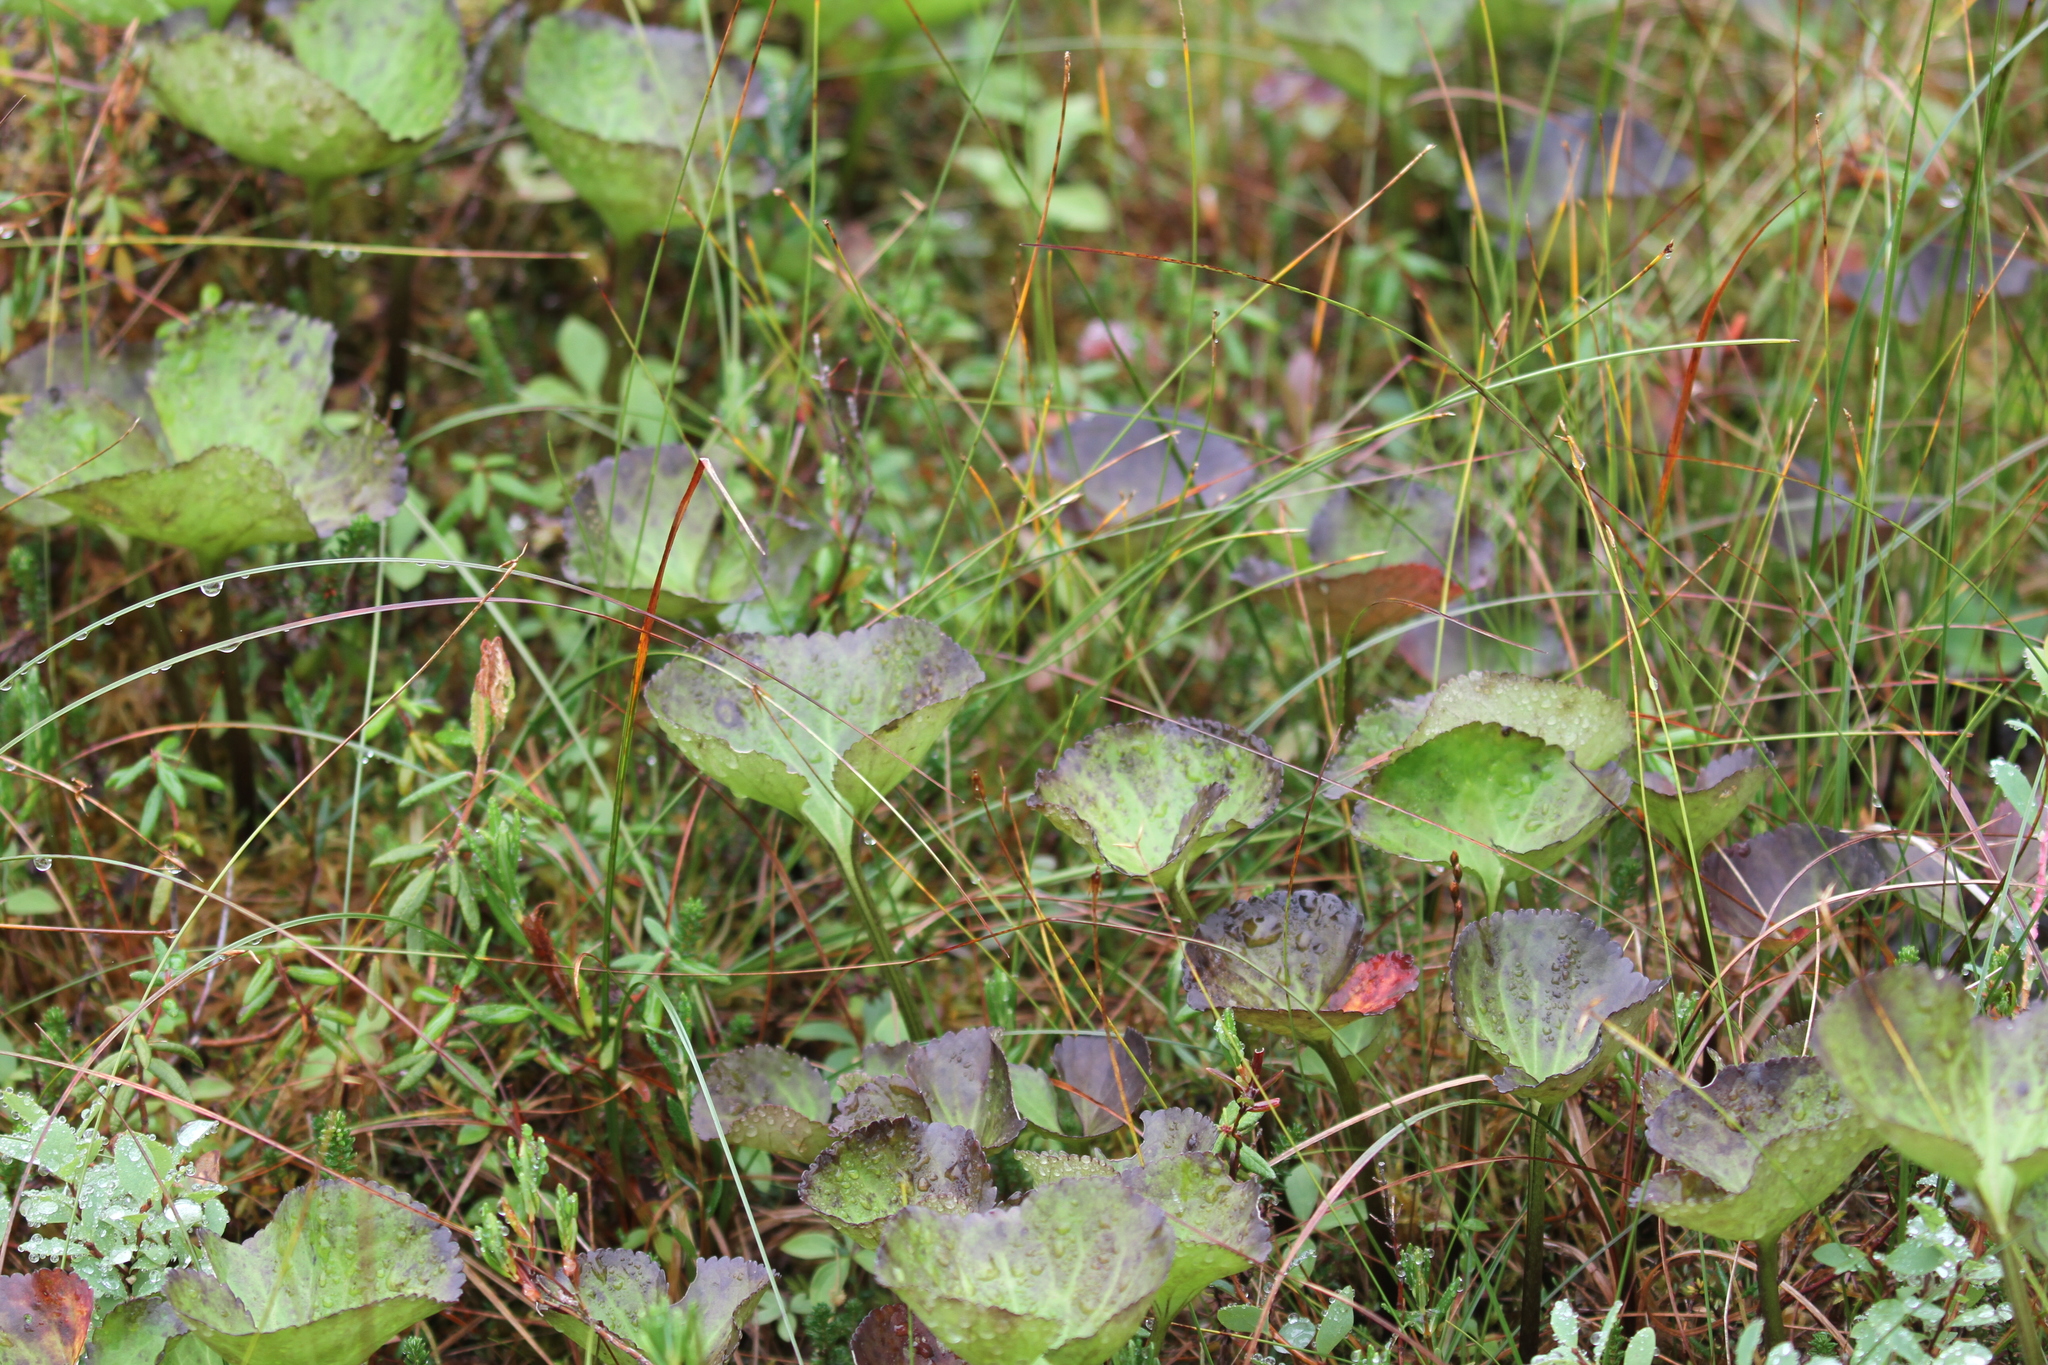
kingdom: Plantae
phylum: Tracheophyta
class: Magnoliopsida
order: Asterales
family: Menyanthaceae
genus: Nephrophyllidium
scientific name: Nephrophyllidium crista-galli
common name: Deer-cabbage
